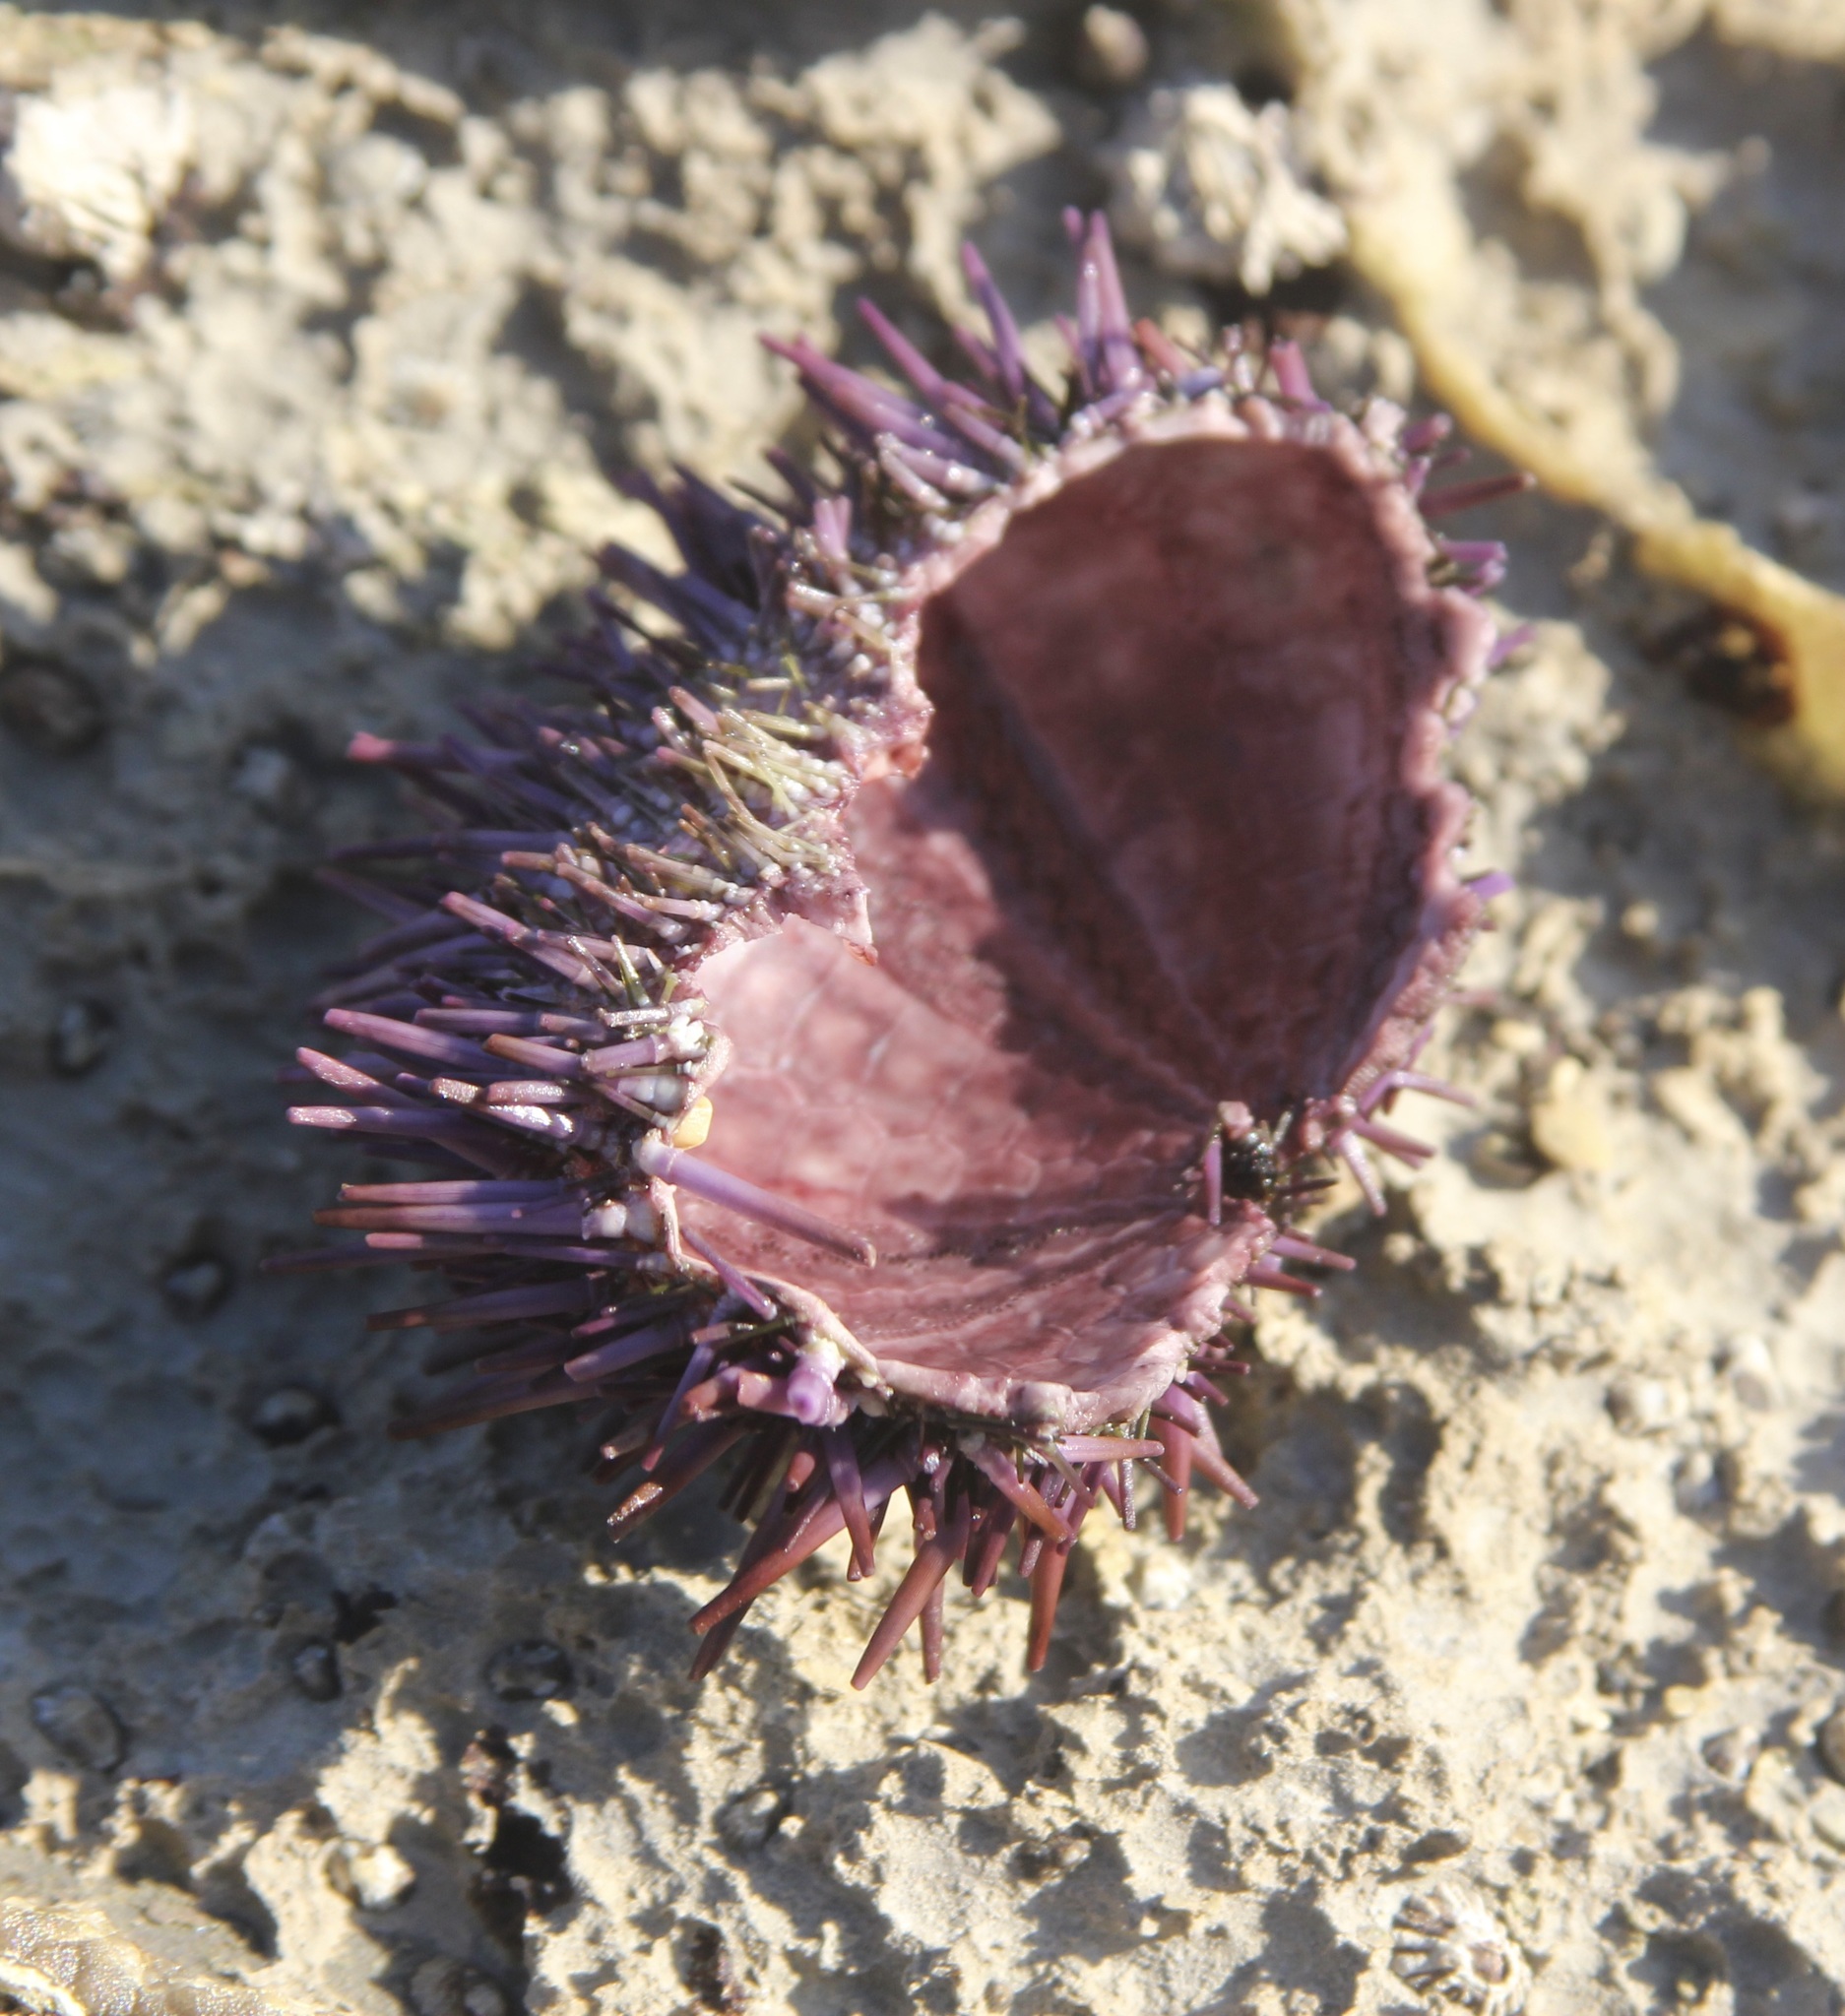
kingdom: Animalia
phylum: Echinodermata
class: Echinoidea
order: Camarodonta
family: Strongylocentrotidae
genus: Strongylocentrotus
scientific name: Strongylocentrotus purpuratus
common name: Purple sea urchin
